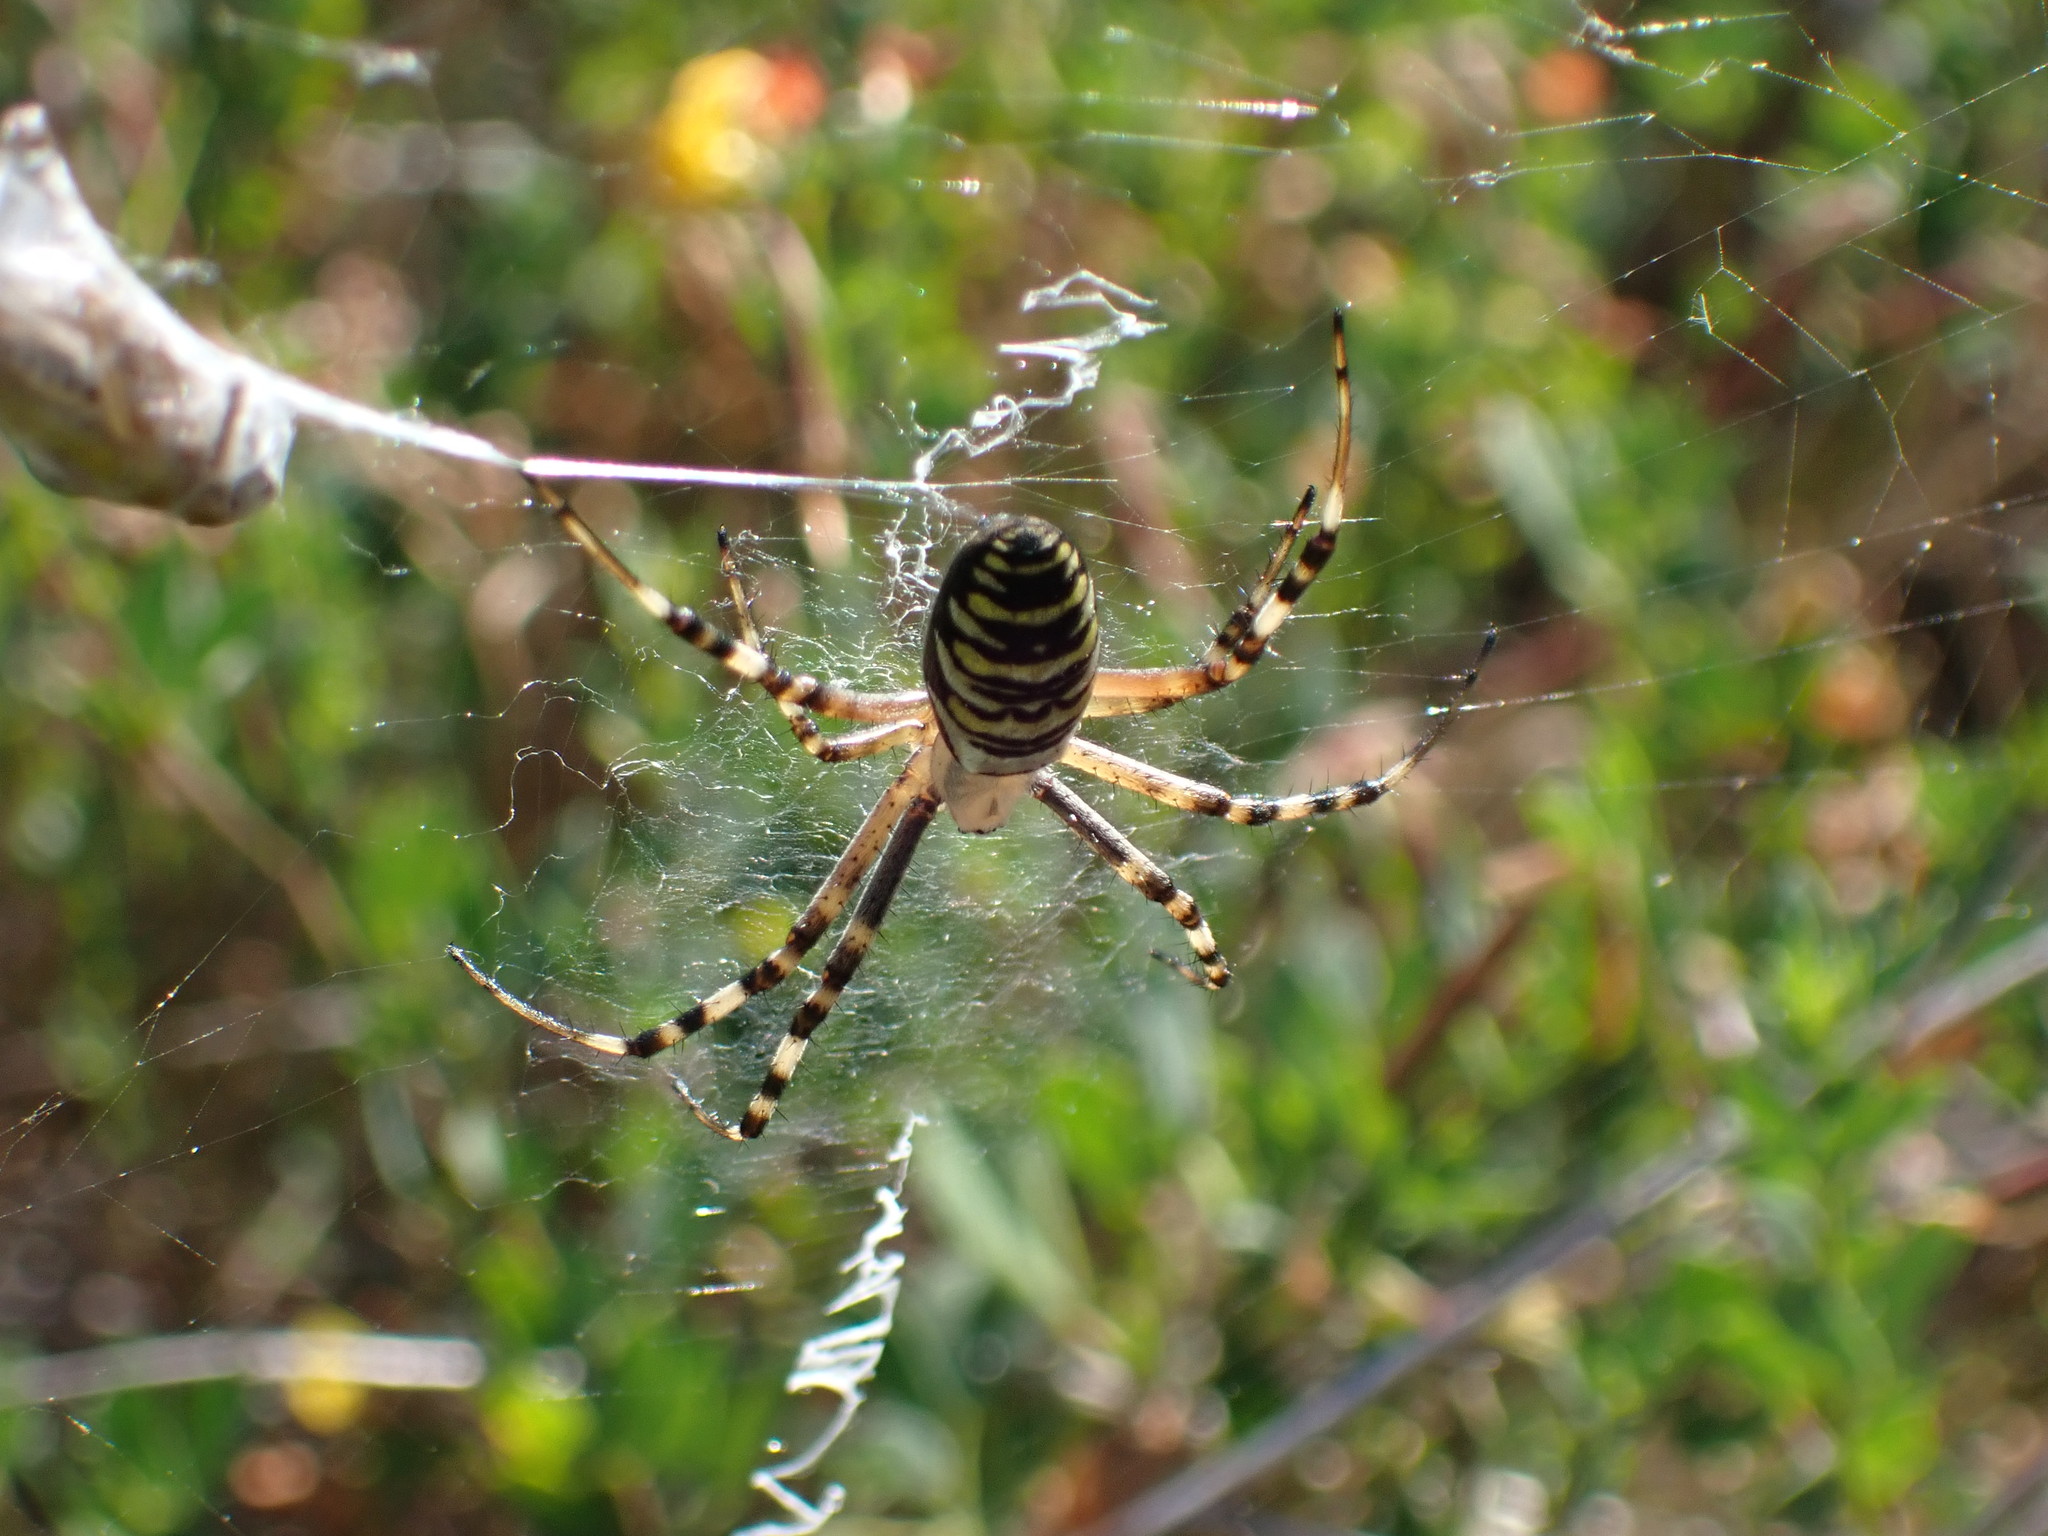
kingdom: Animalia
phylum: Arthropoda
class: Arachnida
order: Araneae
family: Araneidae
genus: Argiope
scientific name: Argiope bruennichi
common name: Wasp spider
